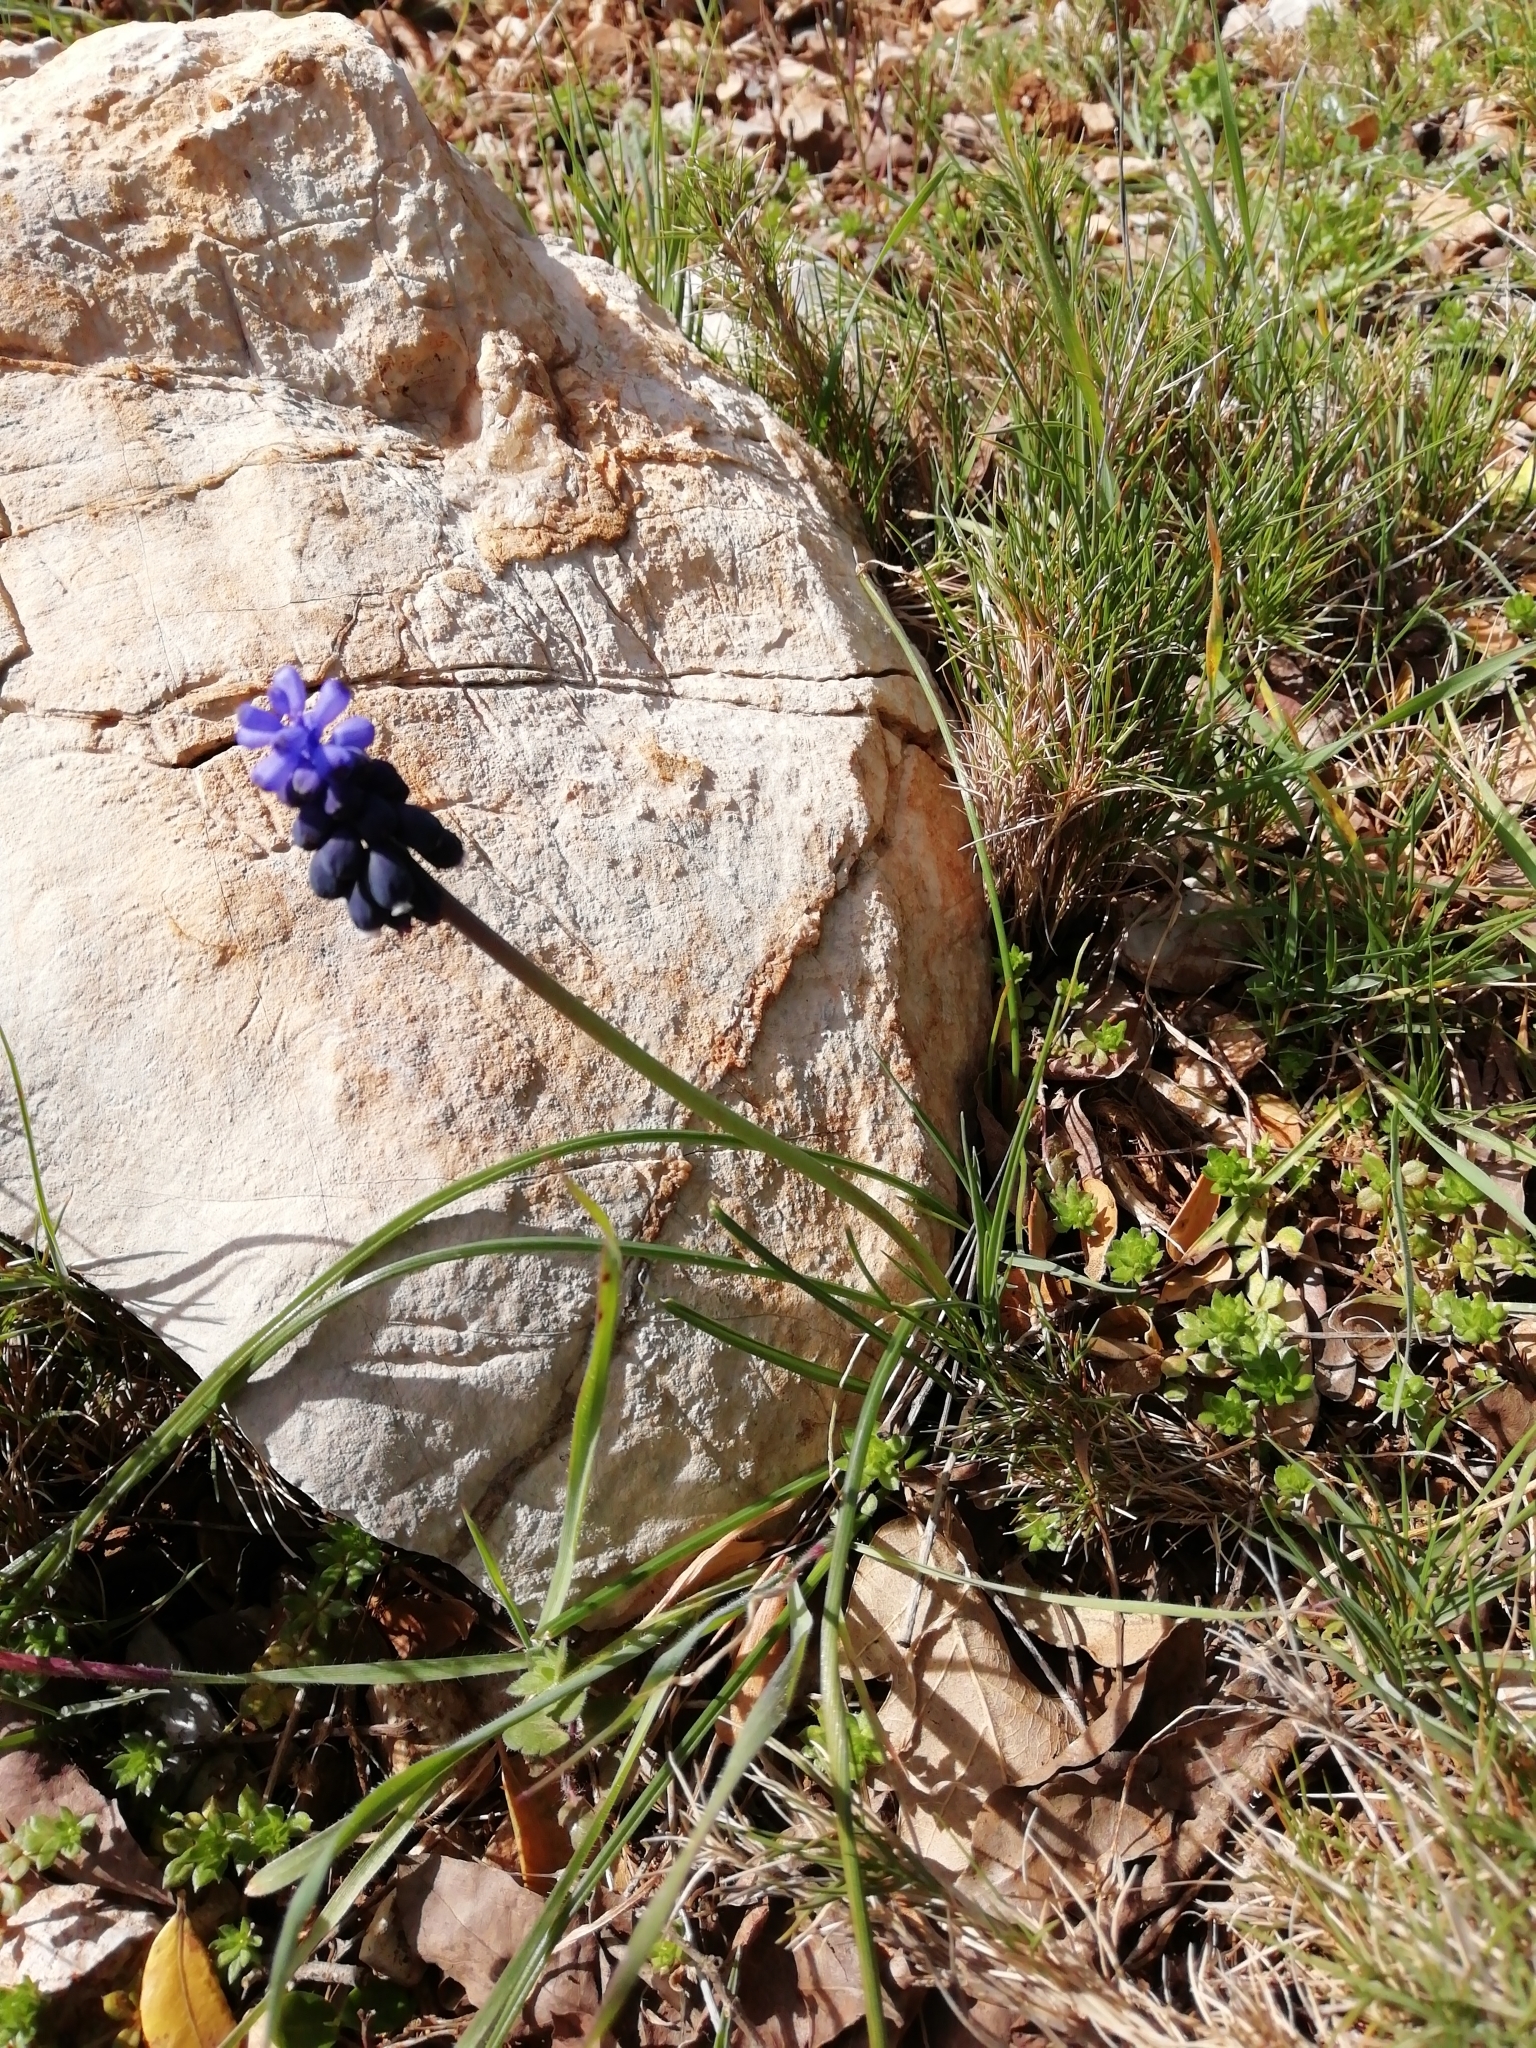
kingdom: Plantae
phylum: Tracheophyta
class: Liliopsida
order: Asparagales
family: Asparagaceae
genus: Muscari
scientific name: Muscari neglectum
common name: Grape-hyacinth
